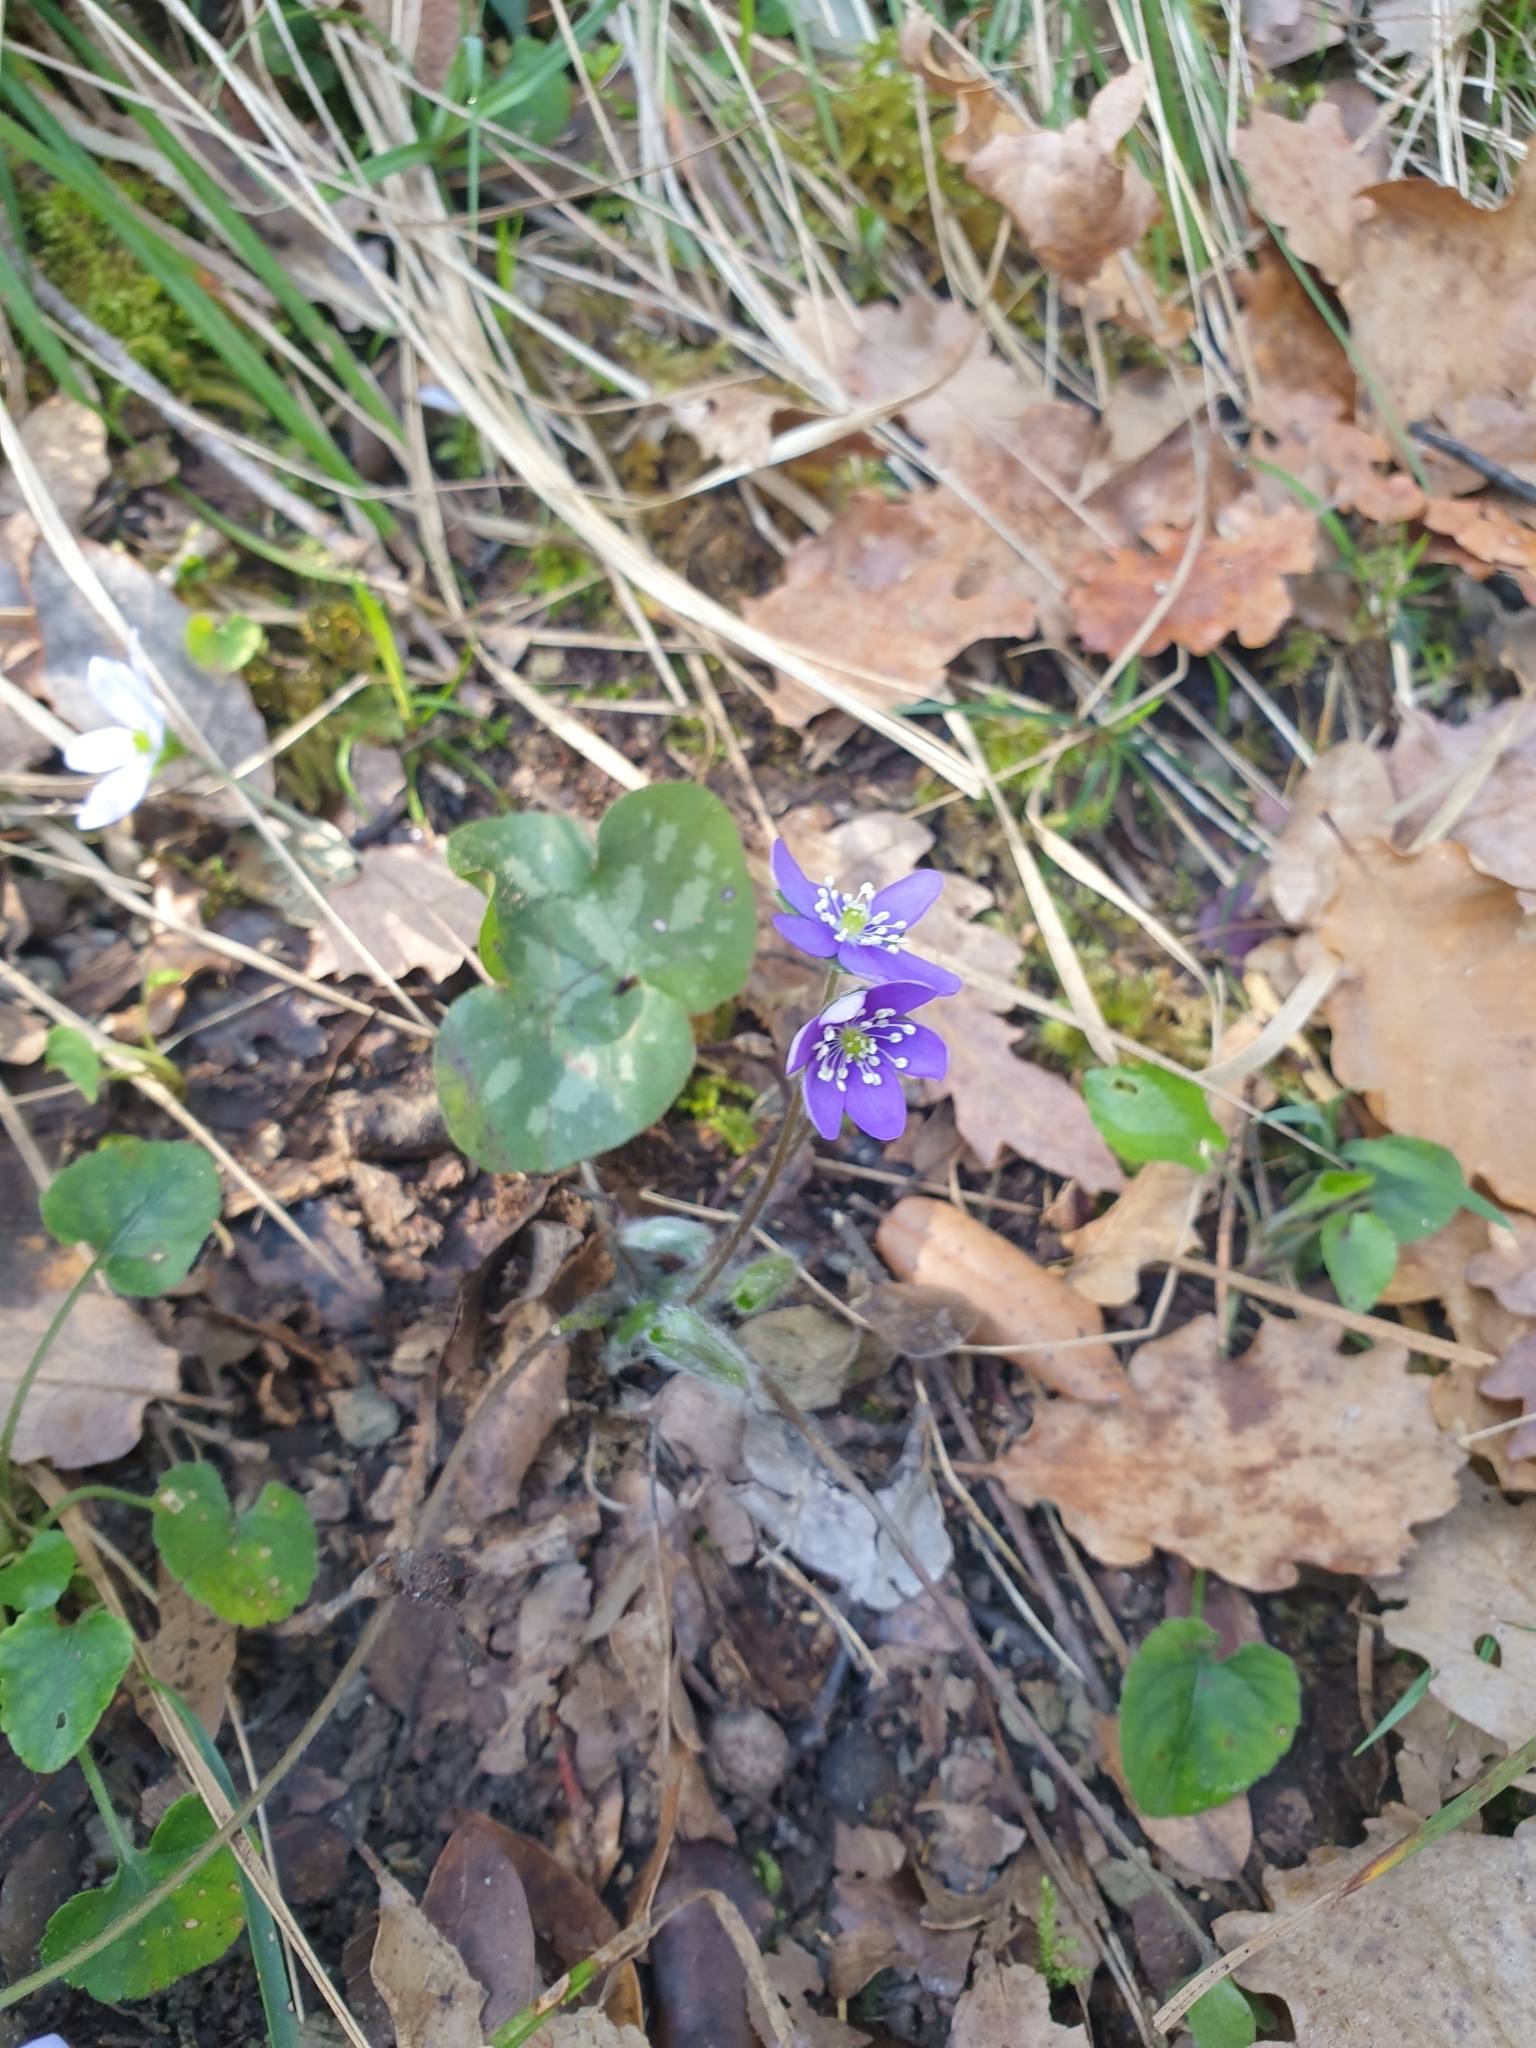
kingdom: Plantae
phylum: Tracheophyta
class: Magnoliopsida
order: Ranunculales
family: Ranunculaceae
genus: Hepatica
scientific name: Hepatica nobilis
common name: Liverleaf
